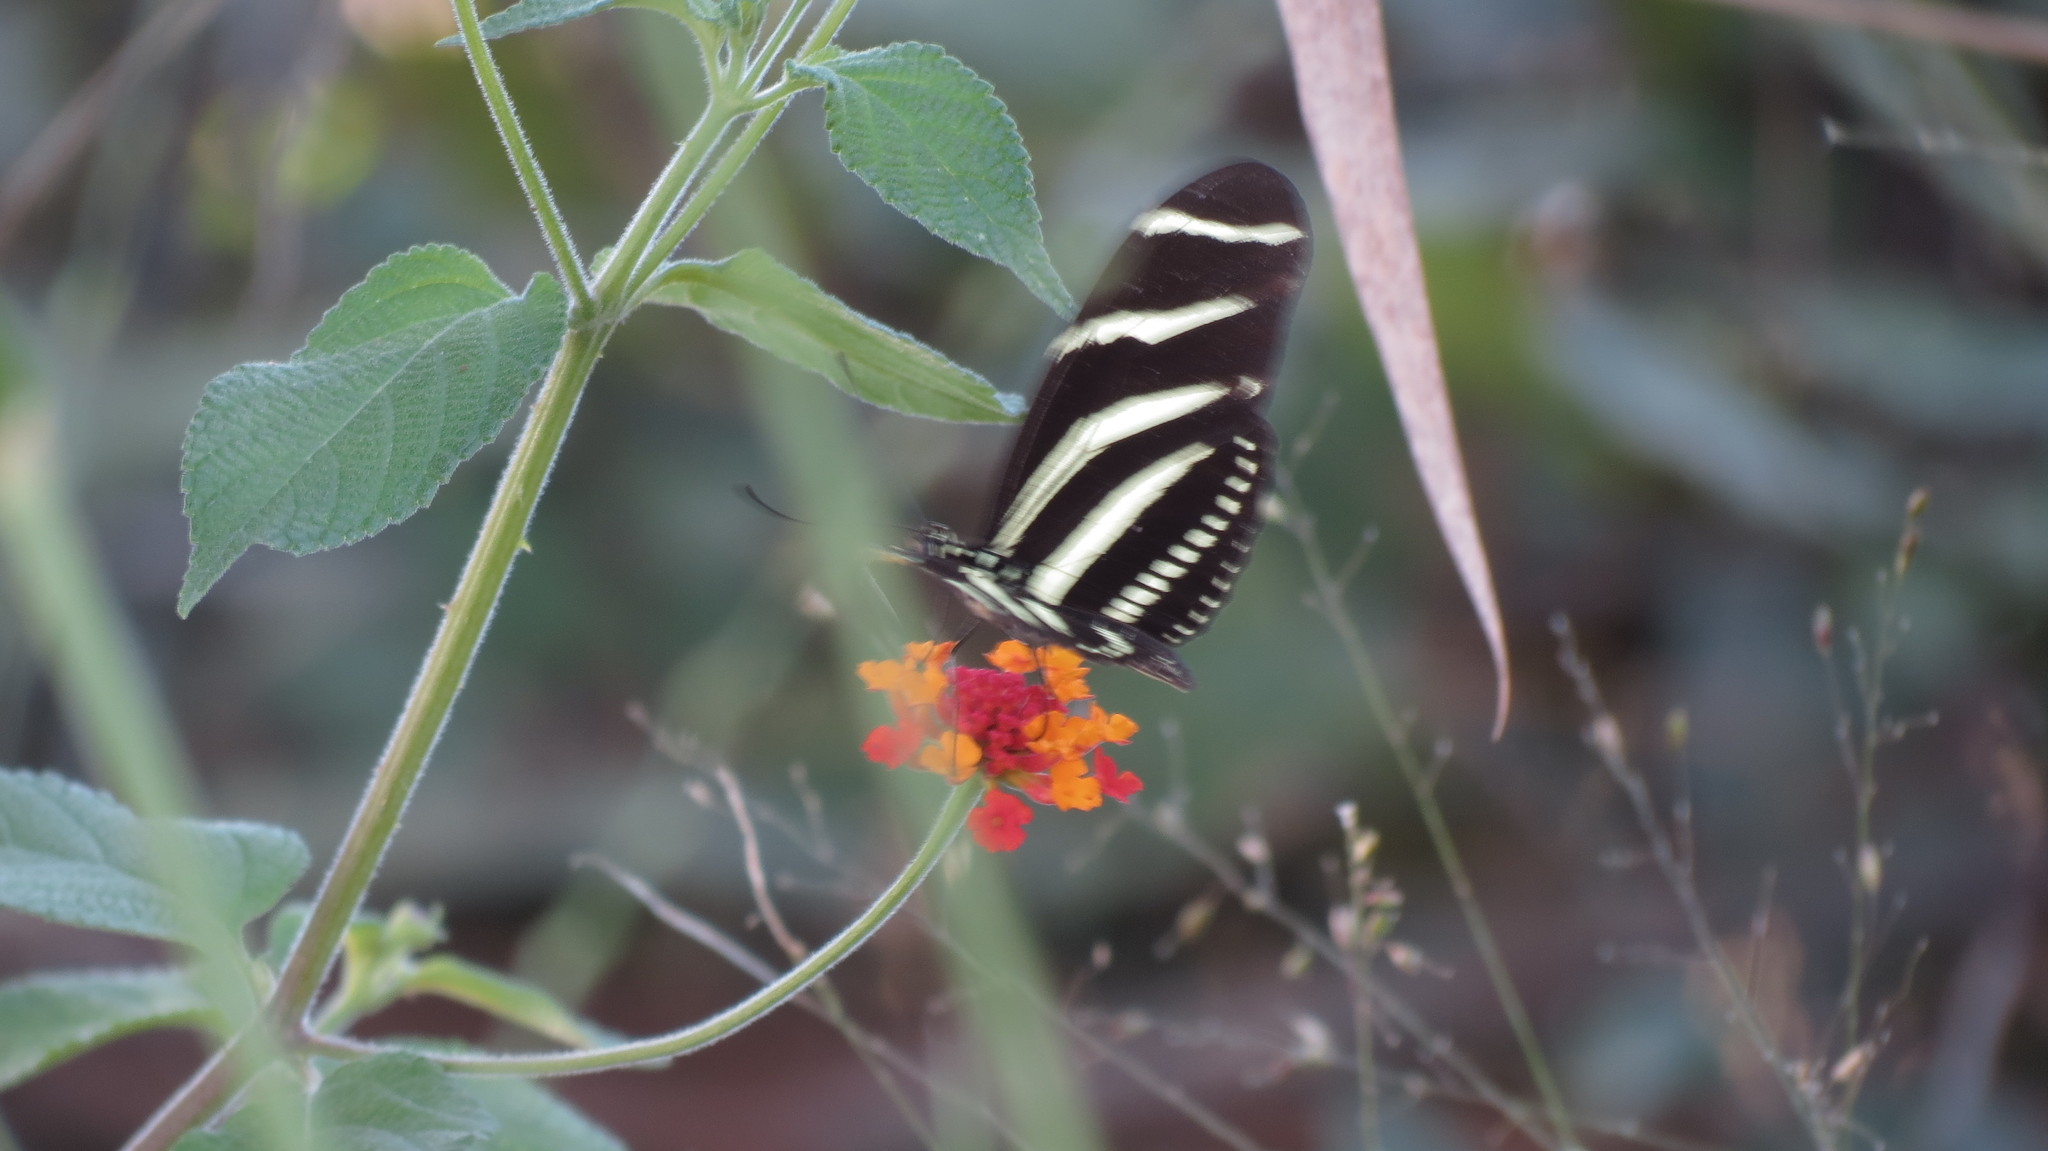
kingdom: Animalia
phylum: Arthropoda
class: Insecta
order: Lepidoptera
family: Nymphalidae
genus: Heliconius
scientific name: Heliconius charithonia
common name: Zebra long wing
